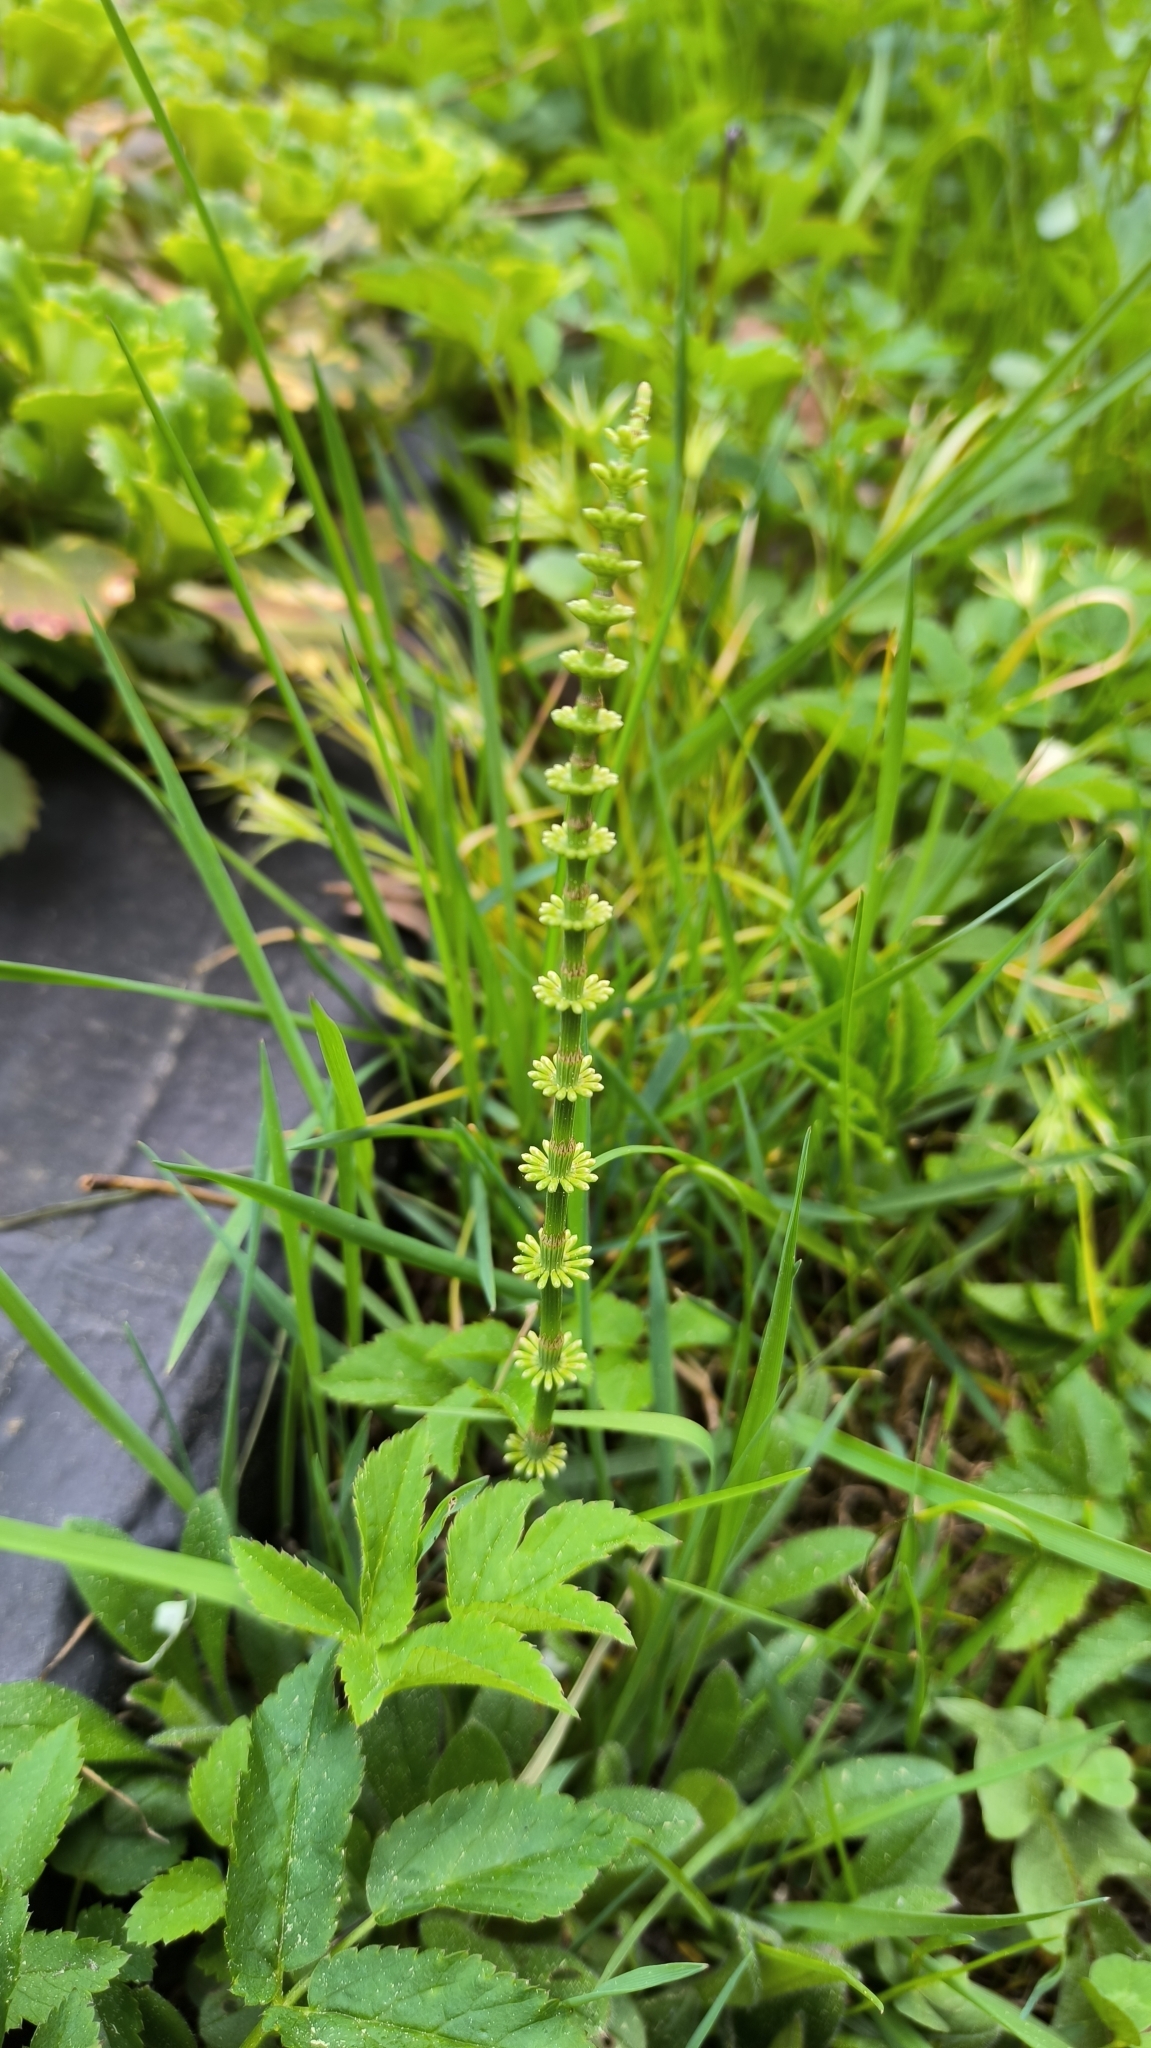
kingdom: Plantae
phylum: Tracheophyta
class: Polypodiopsida
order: Equisetales
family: Equisetaceae
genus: Equisetum
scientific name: Equisetum pratense
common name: Meadow horsetail
